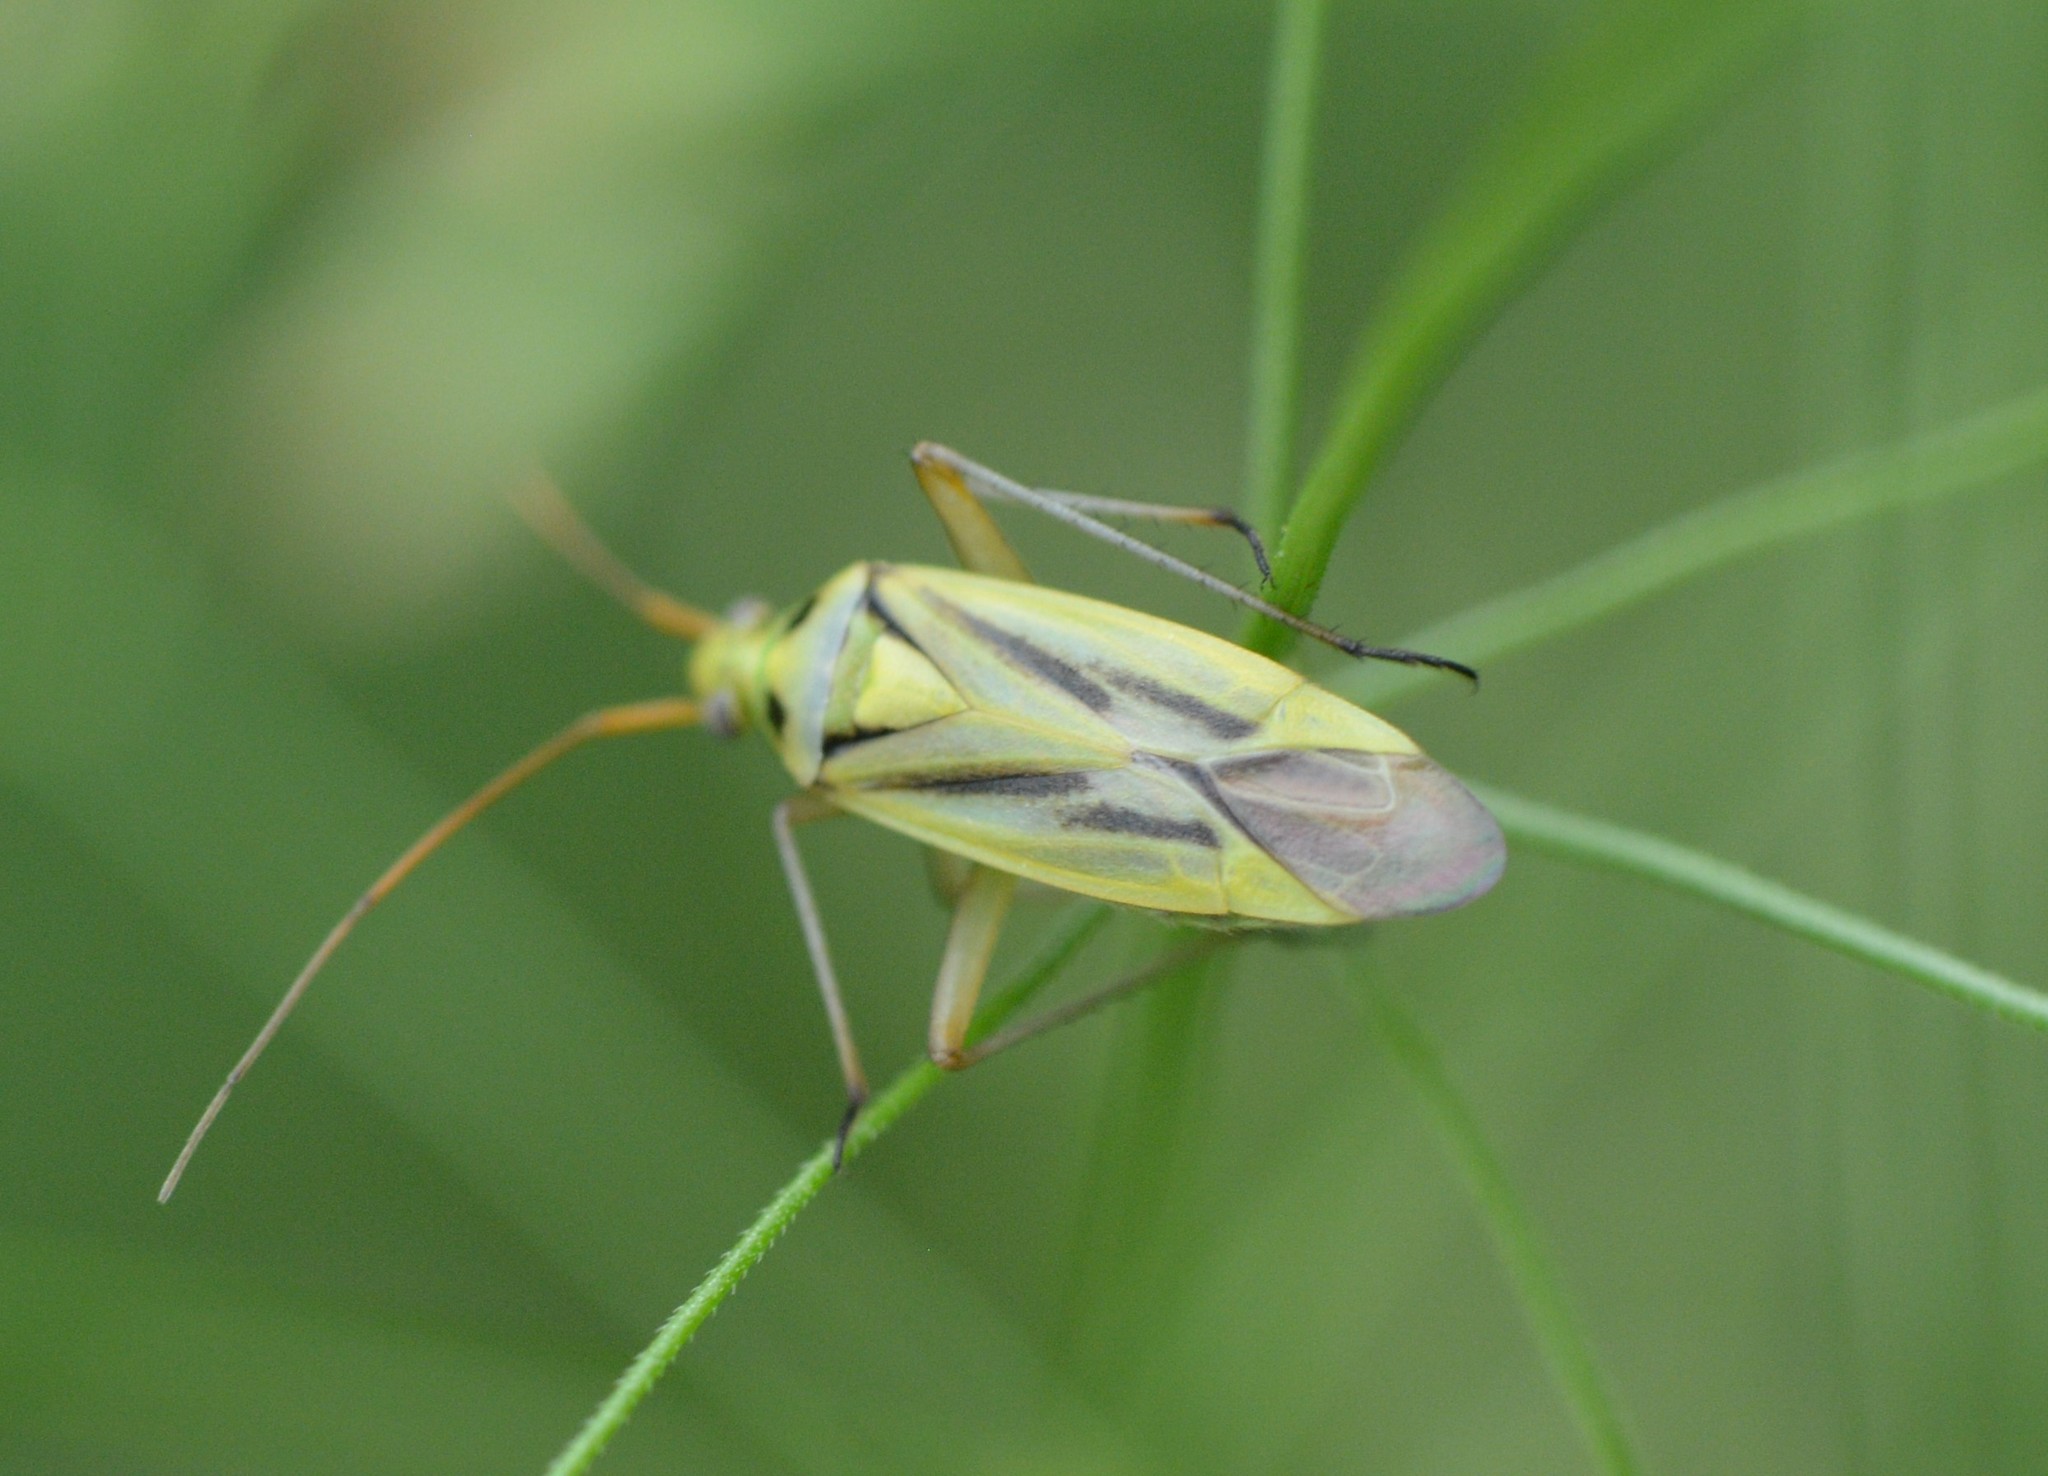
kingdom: Animalia
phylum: Arthropoda
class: Insecta
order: Hemiptera
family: Miridae
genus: Stenotus
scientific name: Stenotus binotatus
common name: Plant bug
